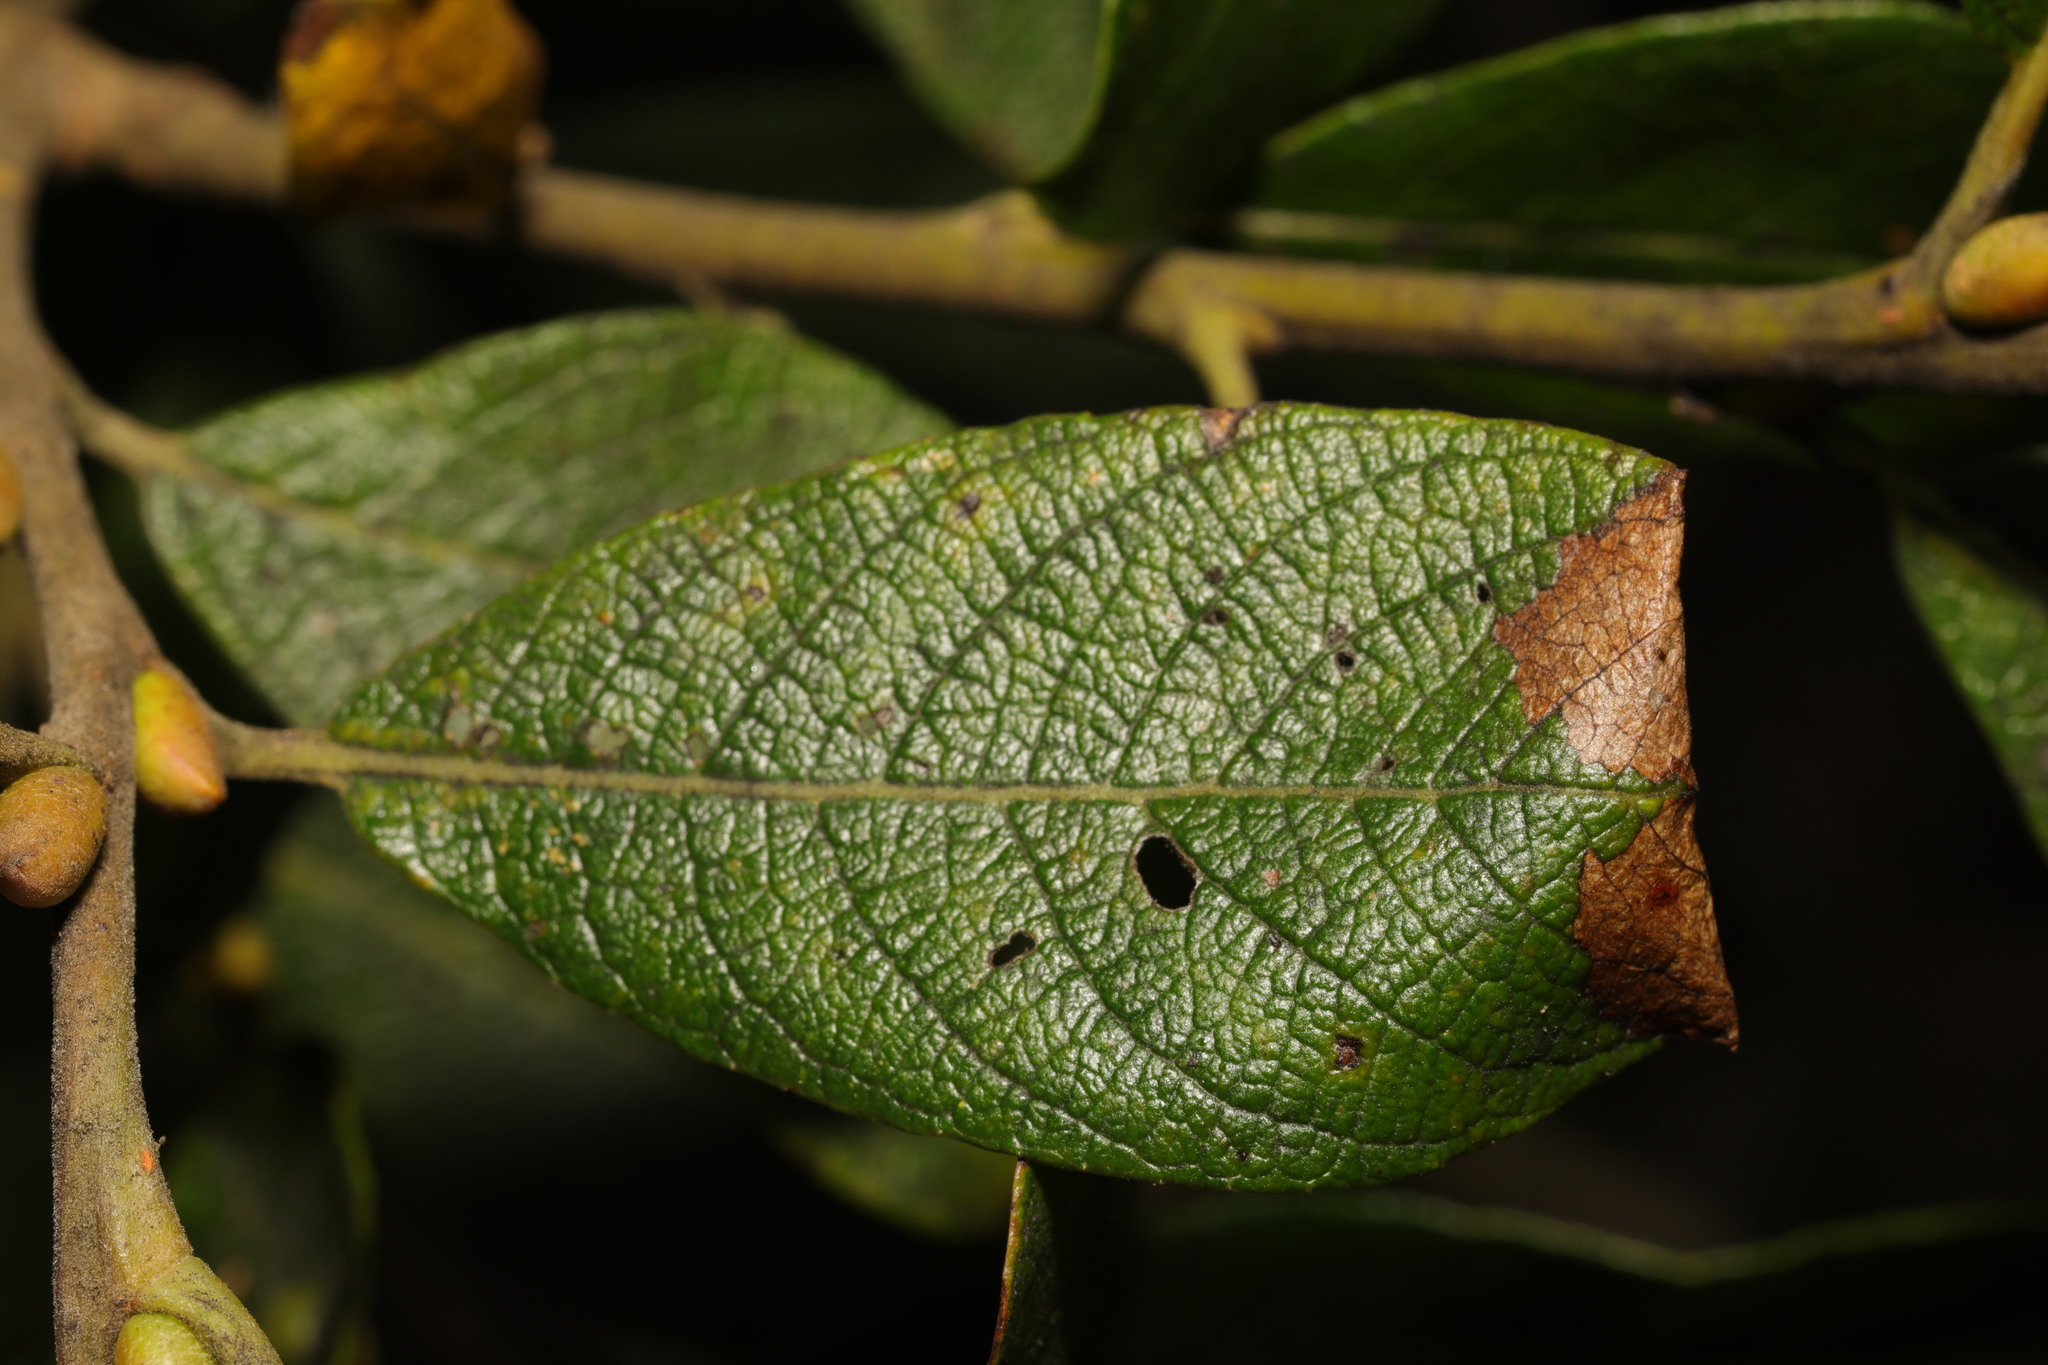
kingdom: Animalia
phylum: Arthropoda
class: Insecta
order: Lepidoptera
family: Gracillariidae
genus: Caloptilia
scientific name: Caloptilia stigmatella
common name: White-triangle slender
